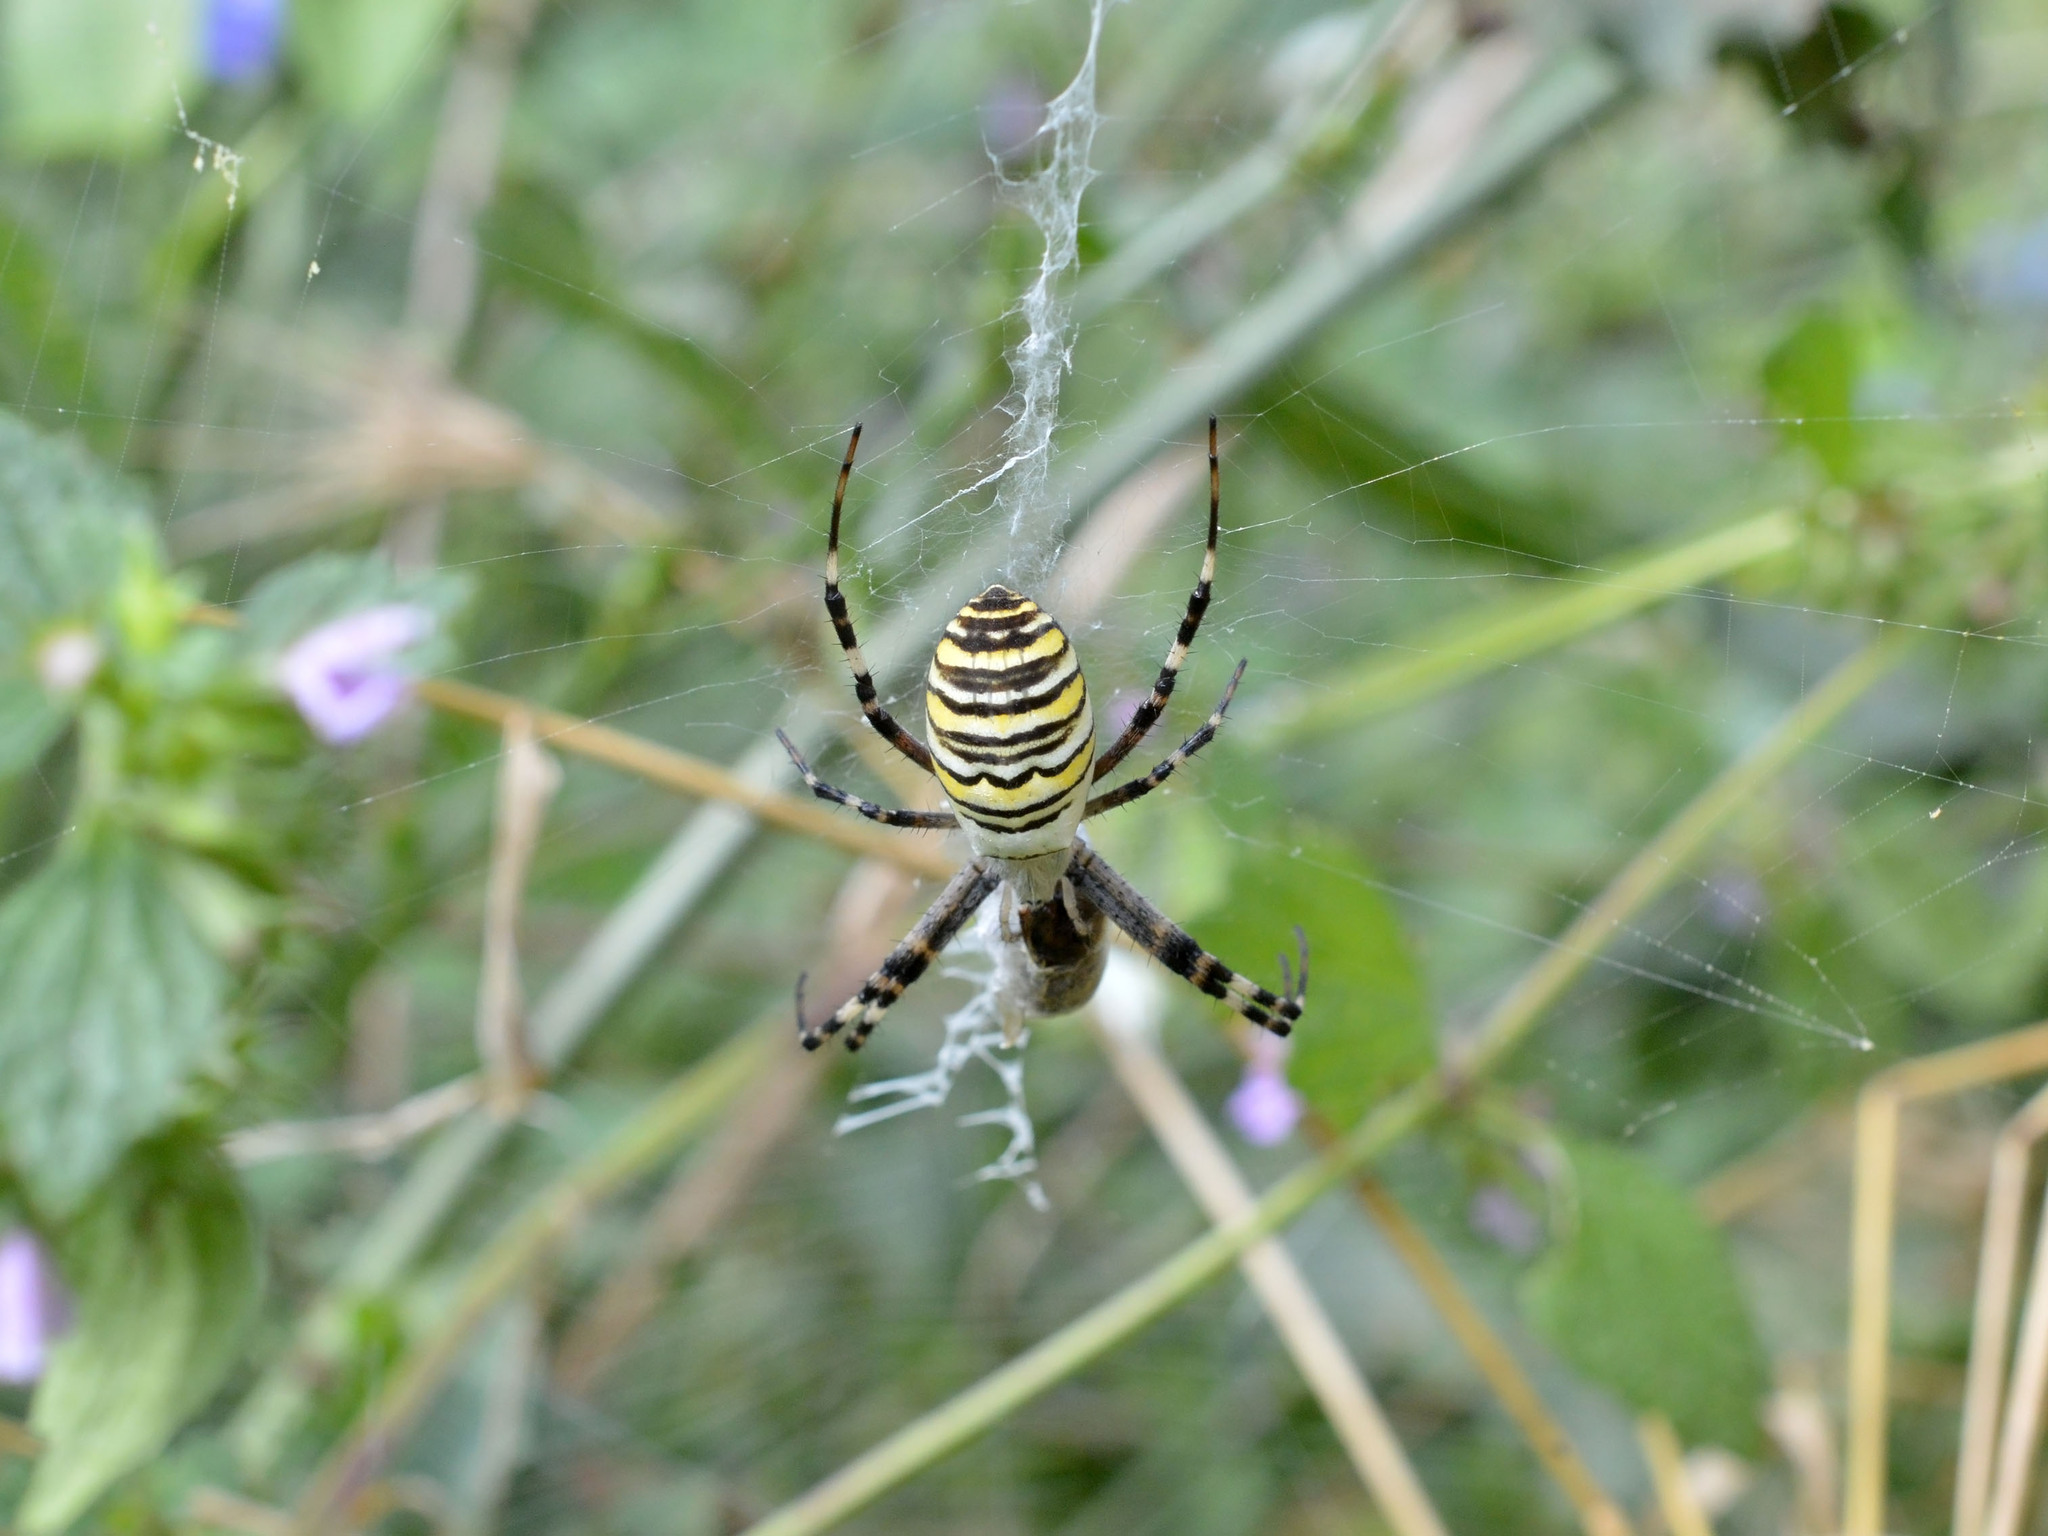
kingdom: Animalia
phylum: Arthropoda
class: Arachnida
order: Araneae
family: Araneidae
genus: Argiope
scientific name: Argiope bruennichi
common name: Wasp spider
